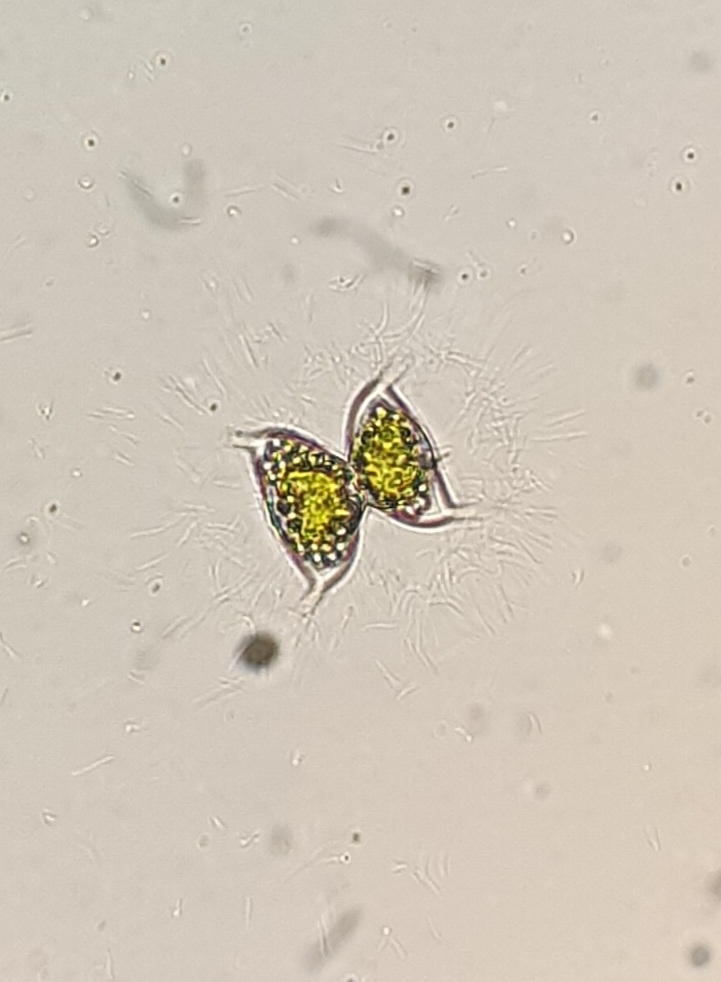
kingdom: Plantae
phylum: Charophyta
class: Conjugatophyceae
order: Desmidiales
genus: Staurodesmus
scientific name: Staurodesmus dejectus
